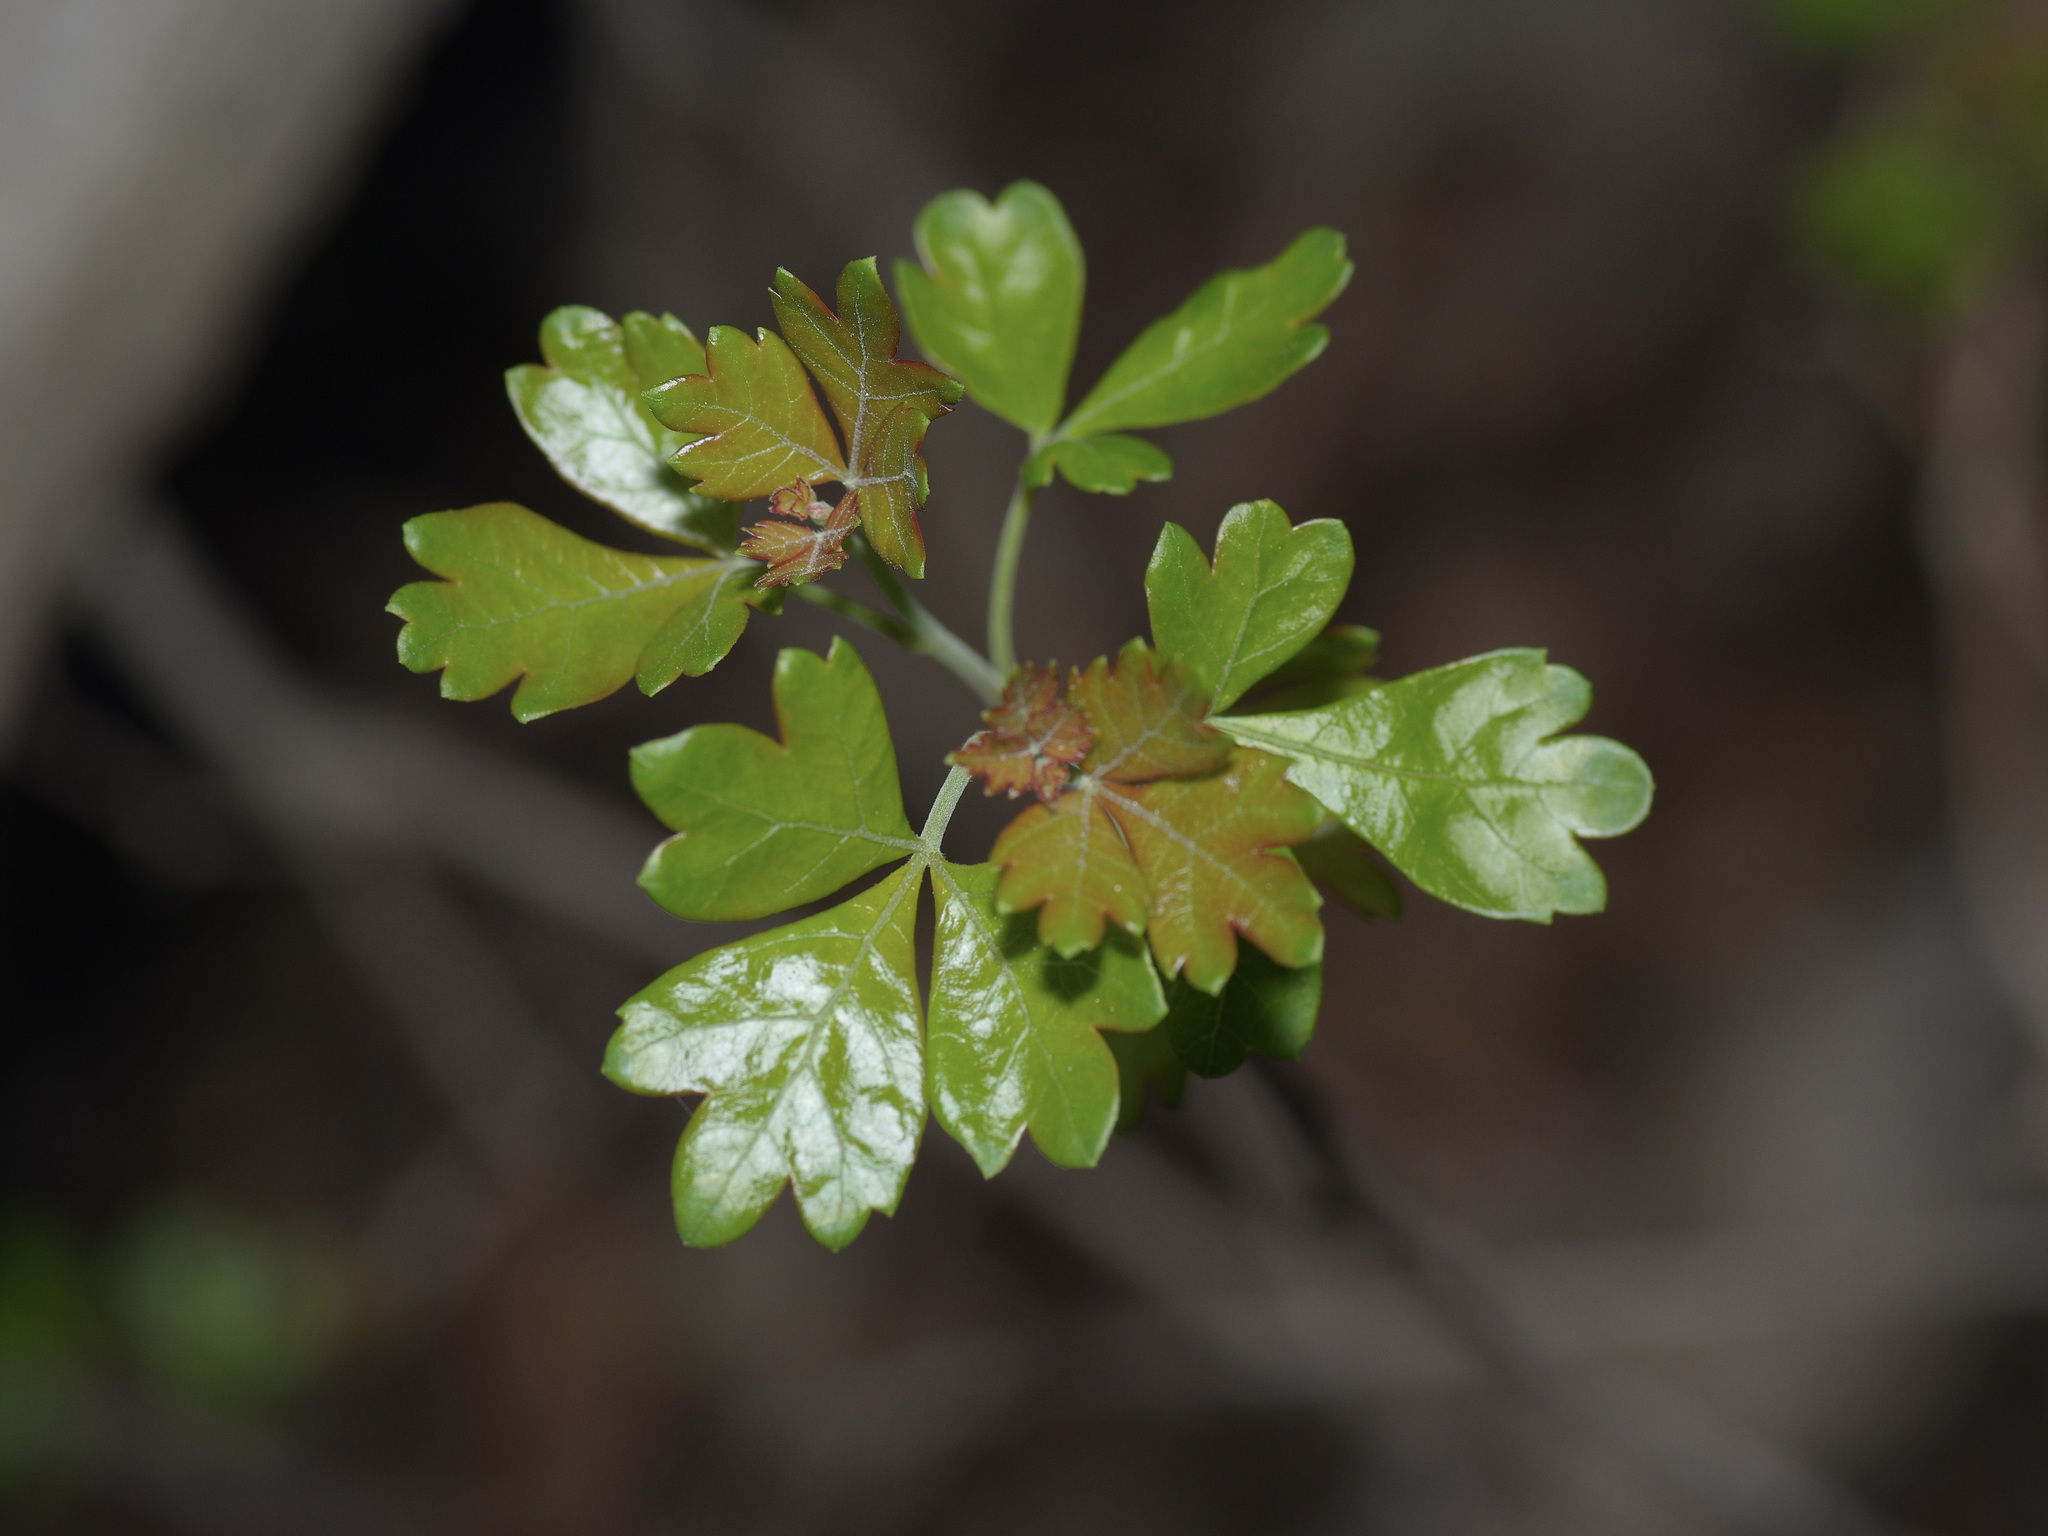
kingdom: Plantae
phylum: Tracheophyta
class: Magnoliopsida
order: Sapindales
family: Anacardiaceae
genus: Rhus
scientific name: Rhus aromatica
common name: Aromatic sumac
